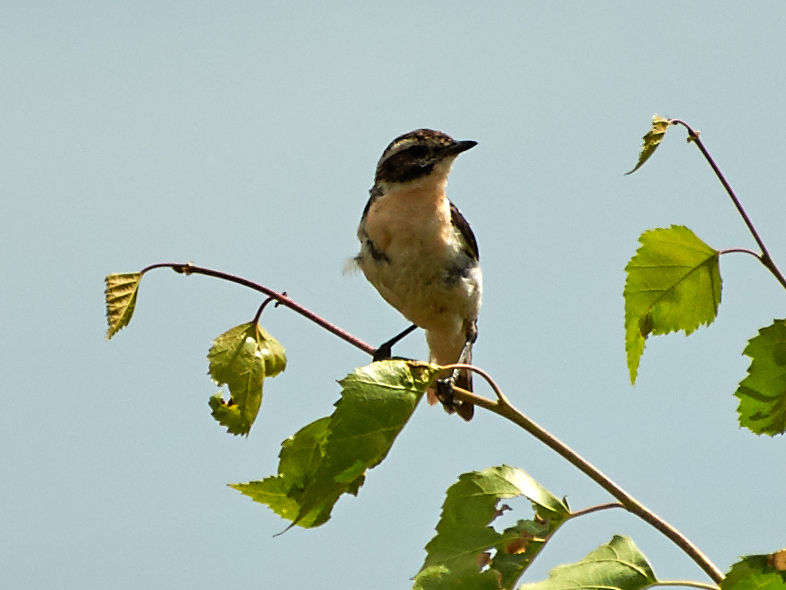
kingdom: Animalia
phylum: Chordata
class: Aves
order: Passeriformes
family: Muscicapidae
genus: Saxicola
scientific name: Saxicola rubetra
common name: Whinchat
